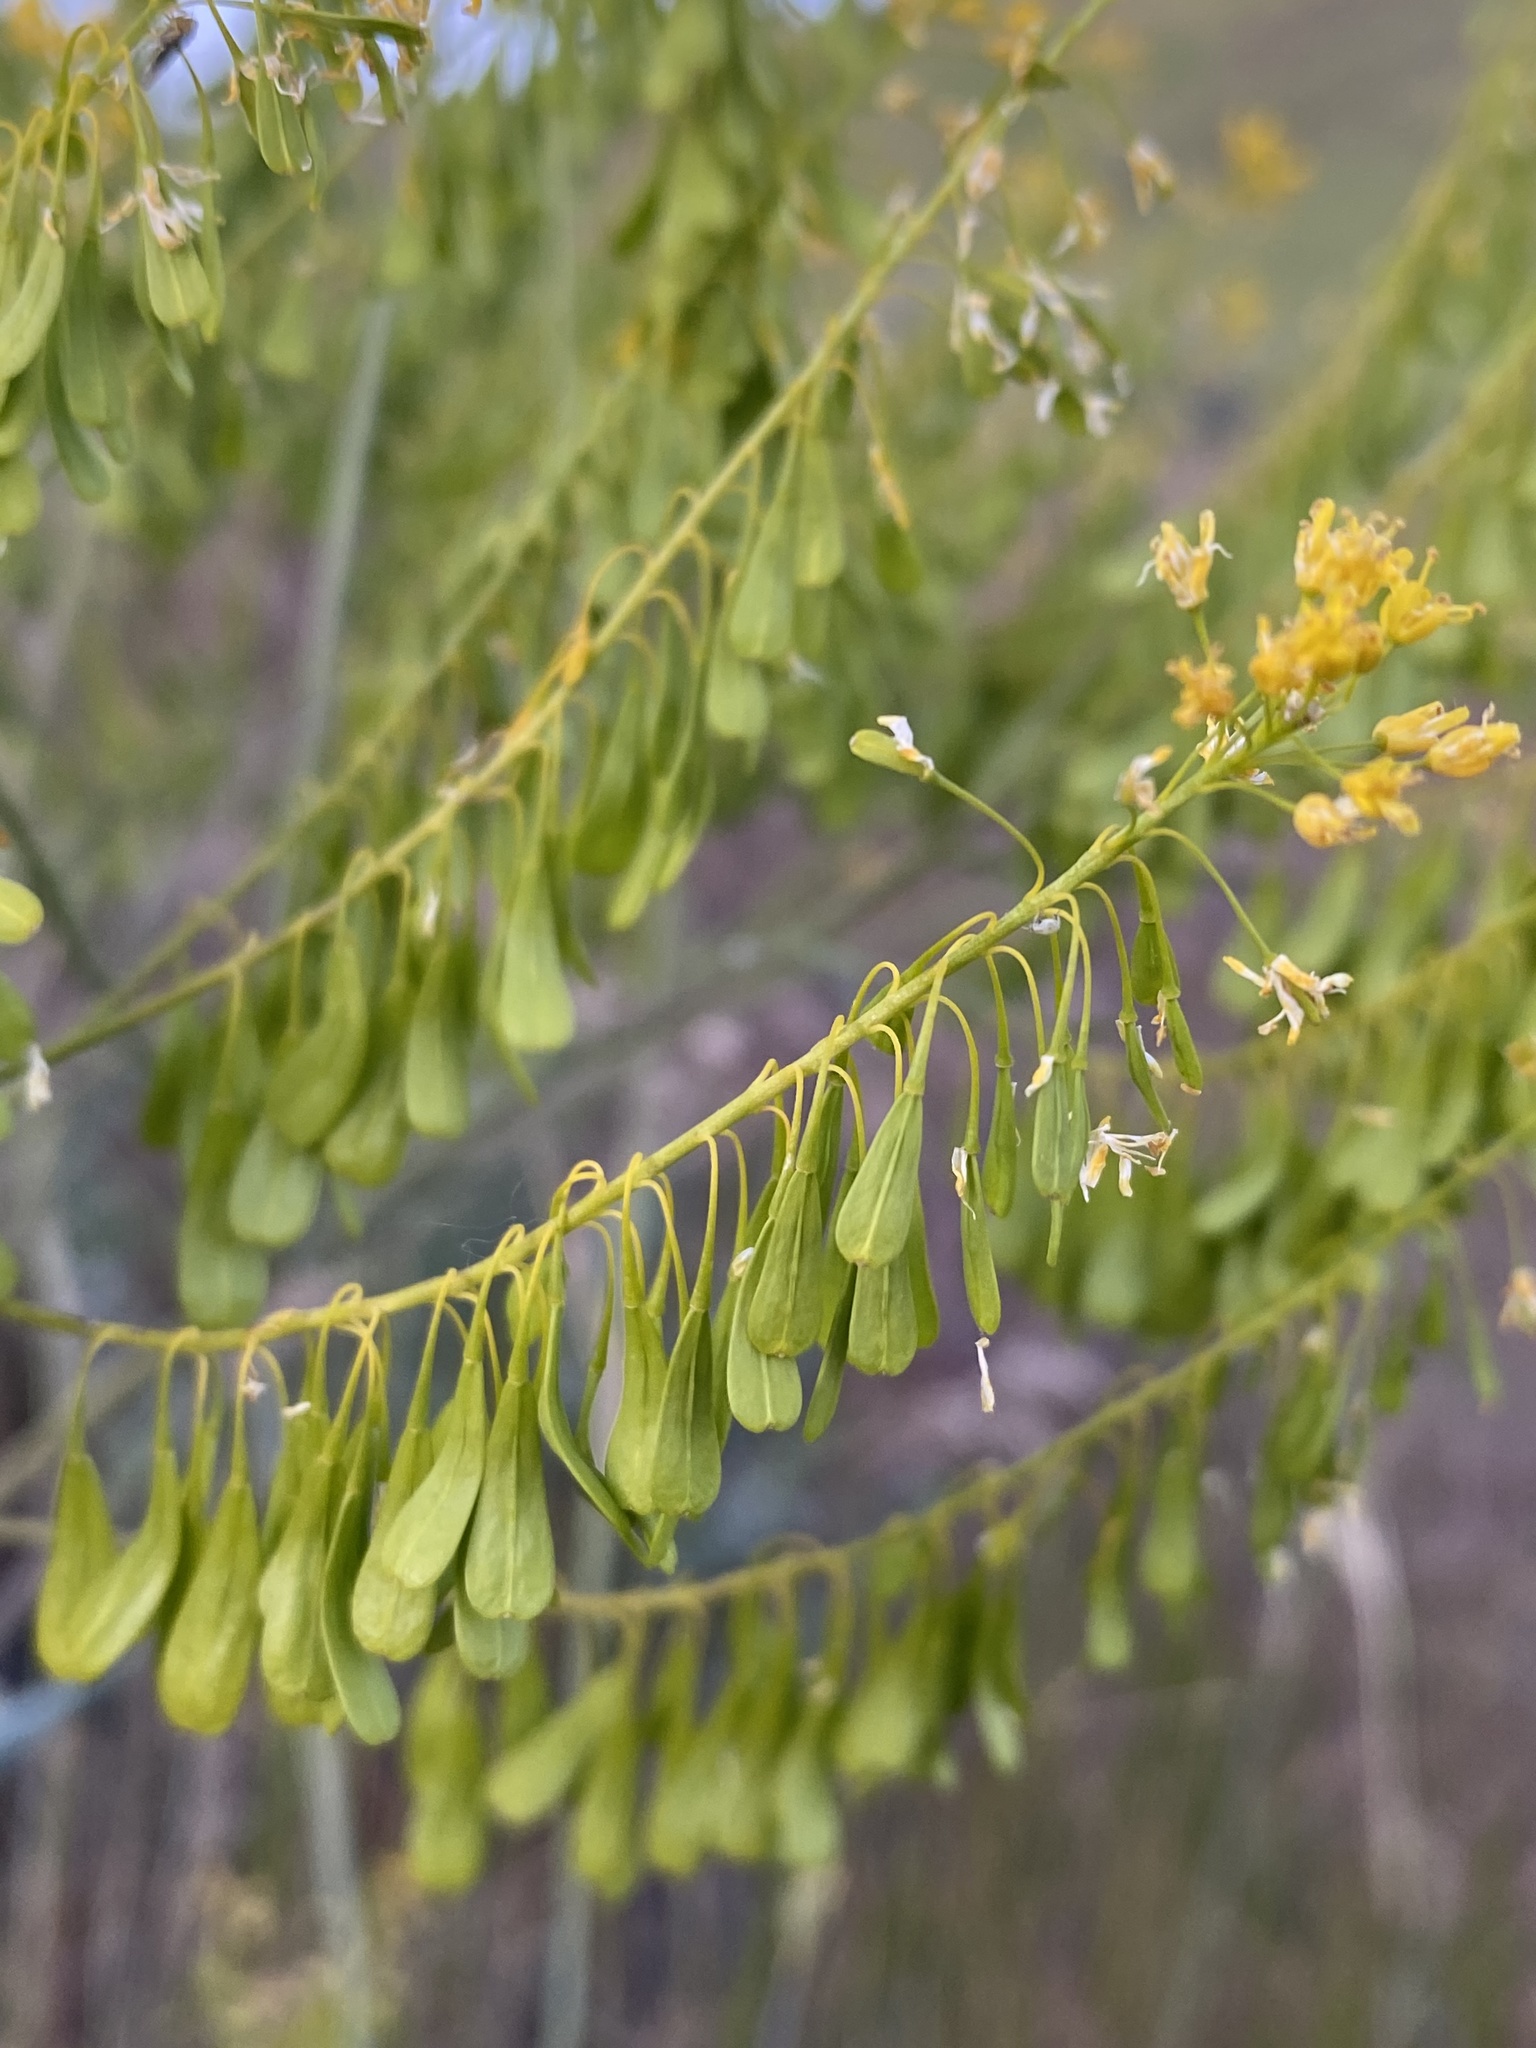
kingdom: Plantae
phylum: Tracheophyta
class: Magnoliopsida
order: Brassicales
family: Brassicaceae
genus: Isatis
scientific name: Isatis tinctoria
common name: Woad
